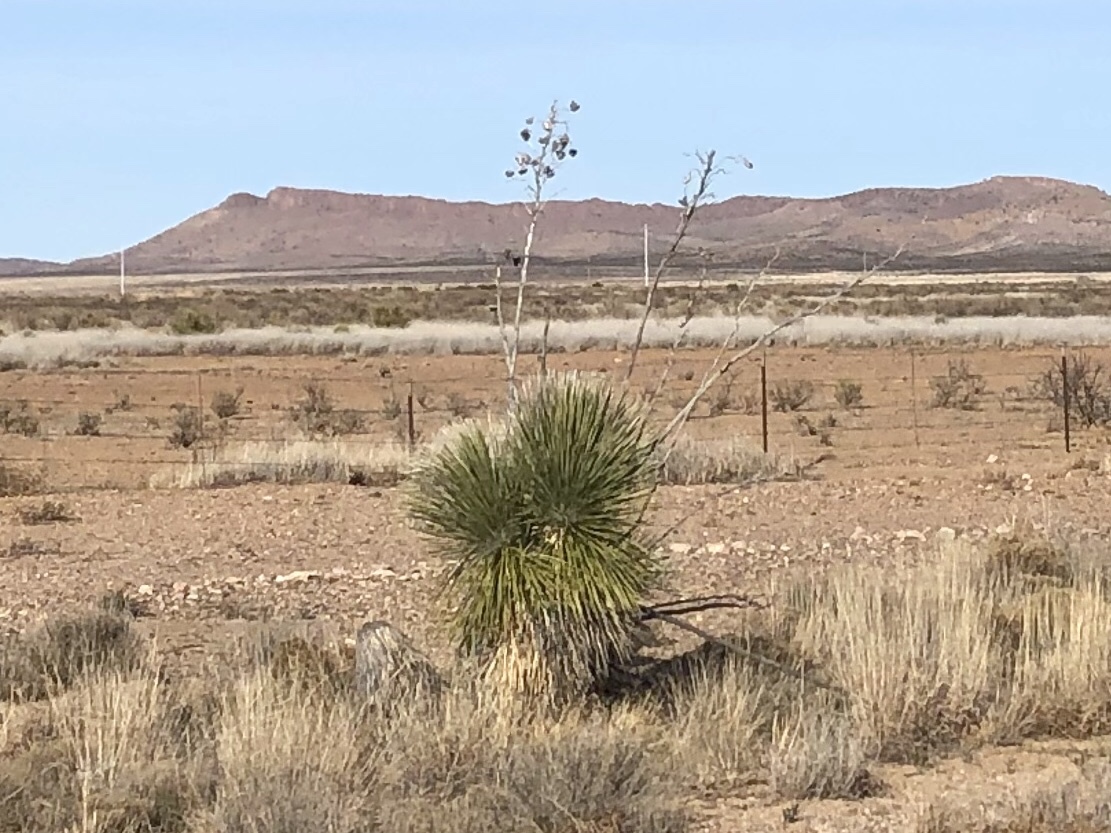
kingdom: Plantae
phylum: Tracheophyta
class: Liliopsida
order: Asparagales
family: Asparagaceae
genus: Yucca
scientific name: Yucca elata
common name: Palmella
